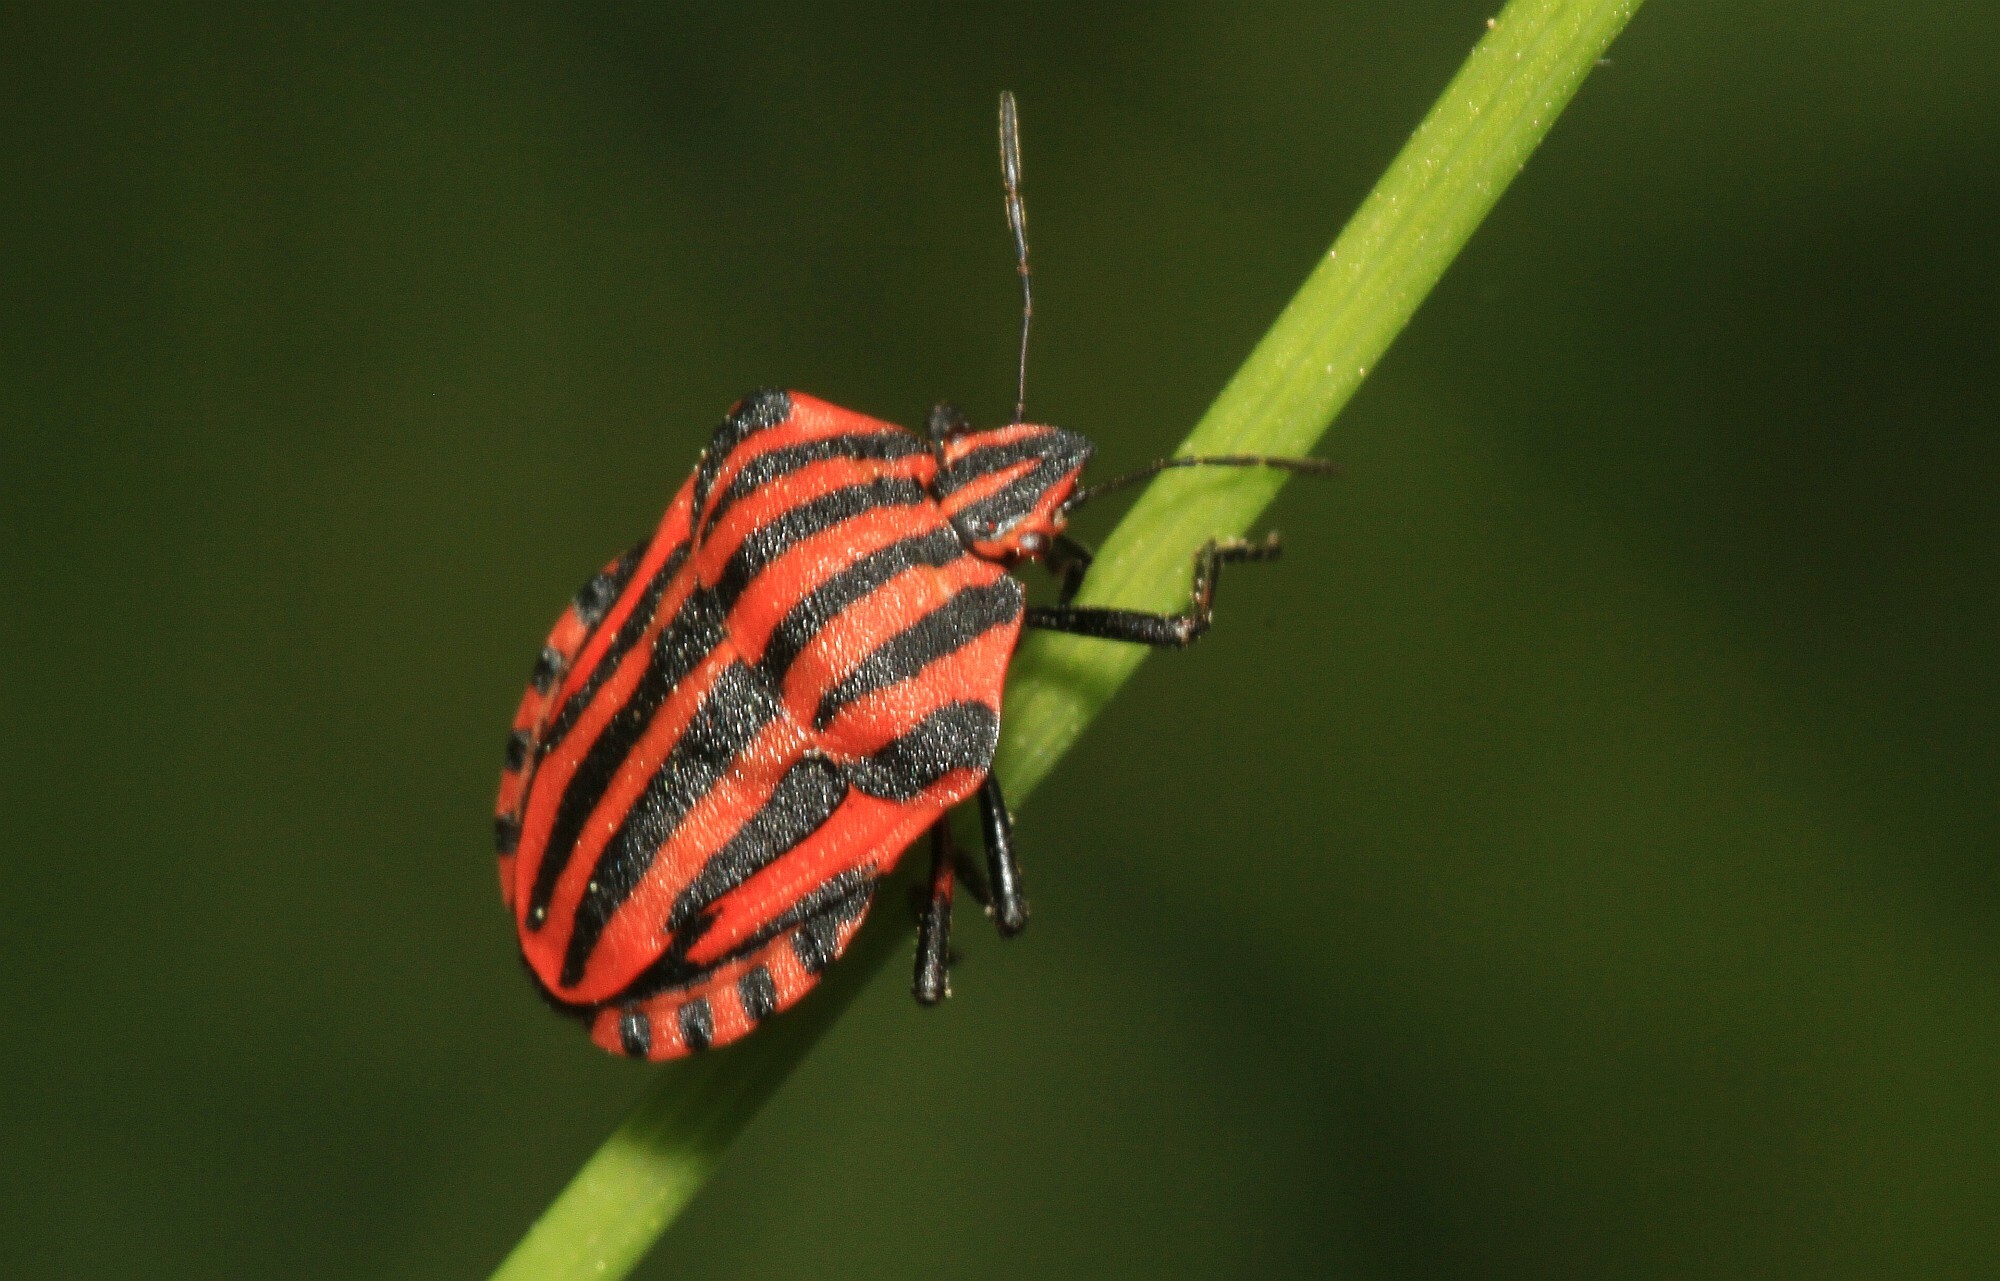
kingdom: Animalia
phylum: Arthropoda
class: Insecta
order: Hemiptera
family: Pentatomidae
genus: Graphosoma
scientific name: Graphosoma italicum
